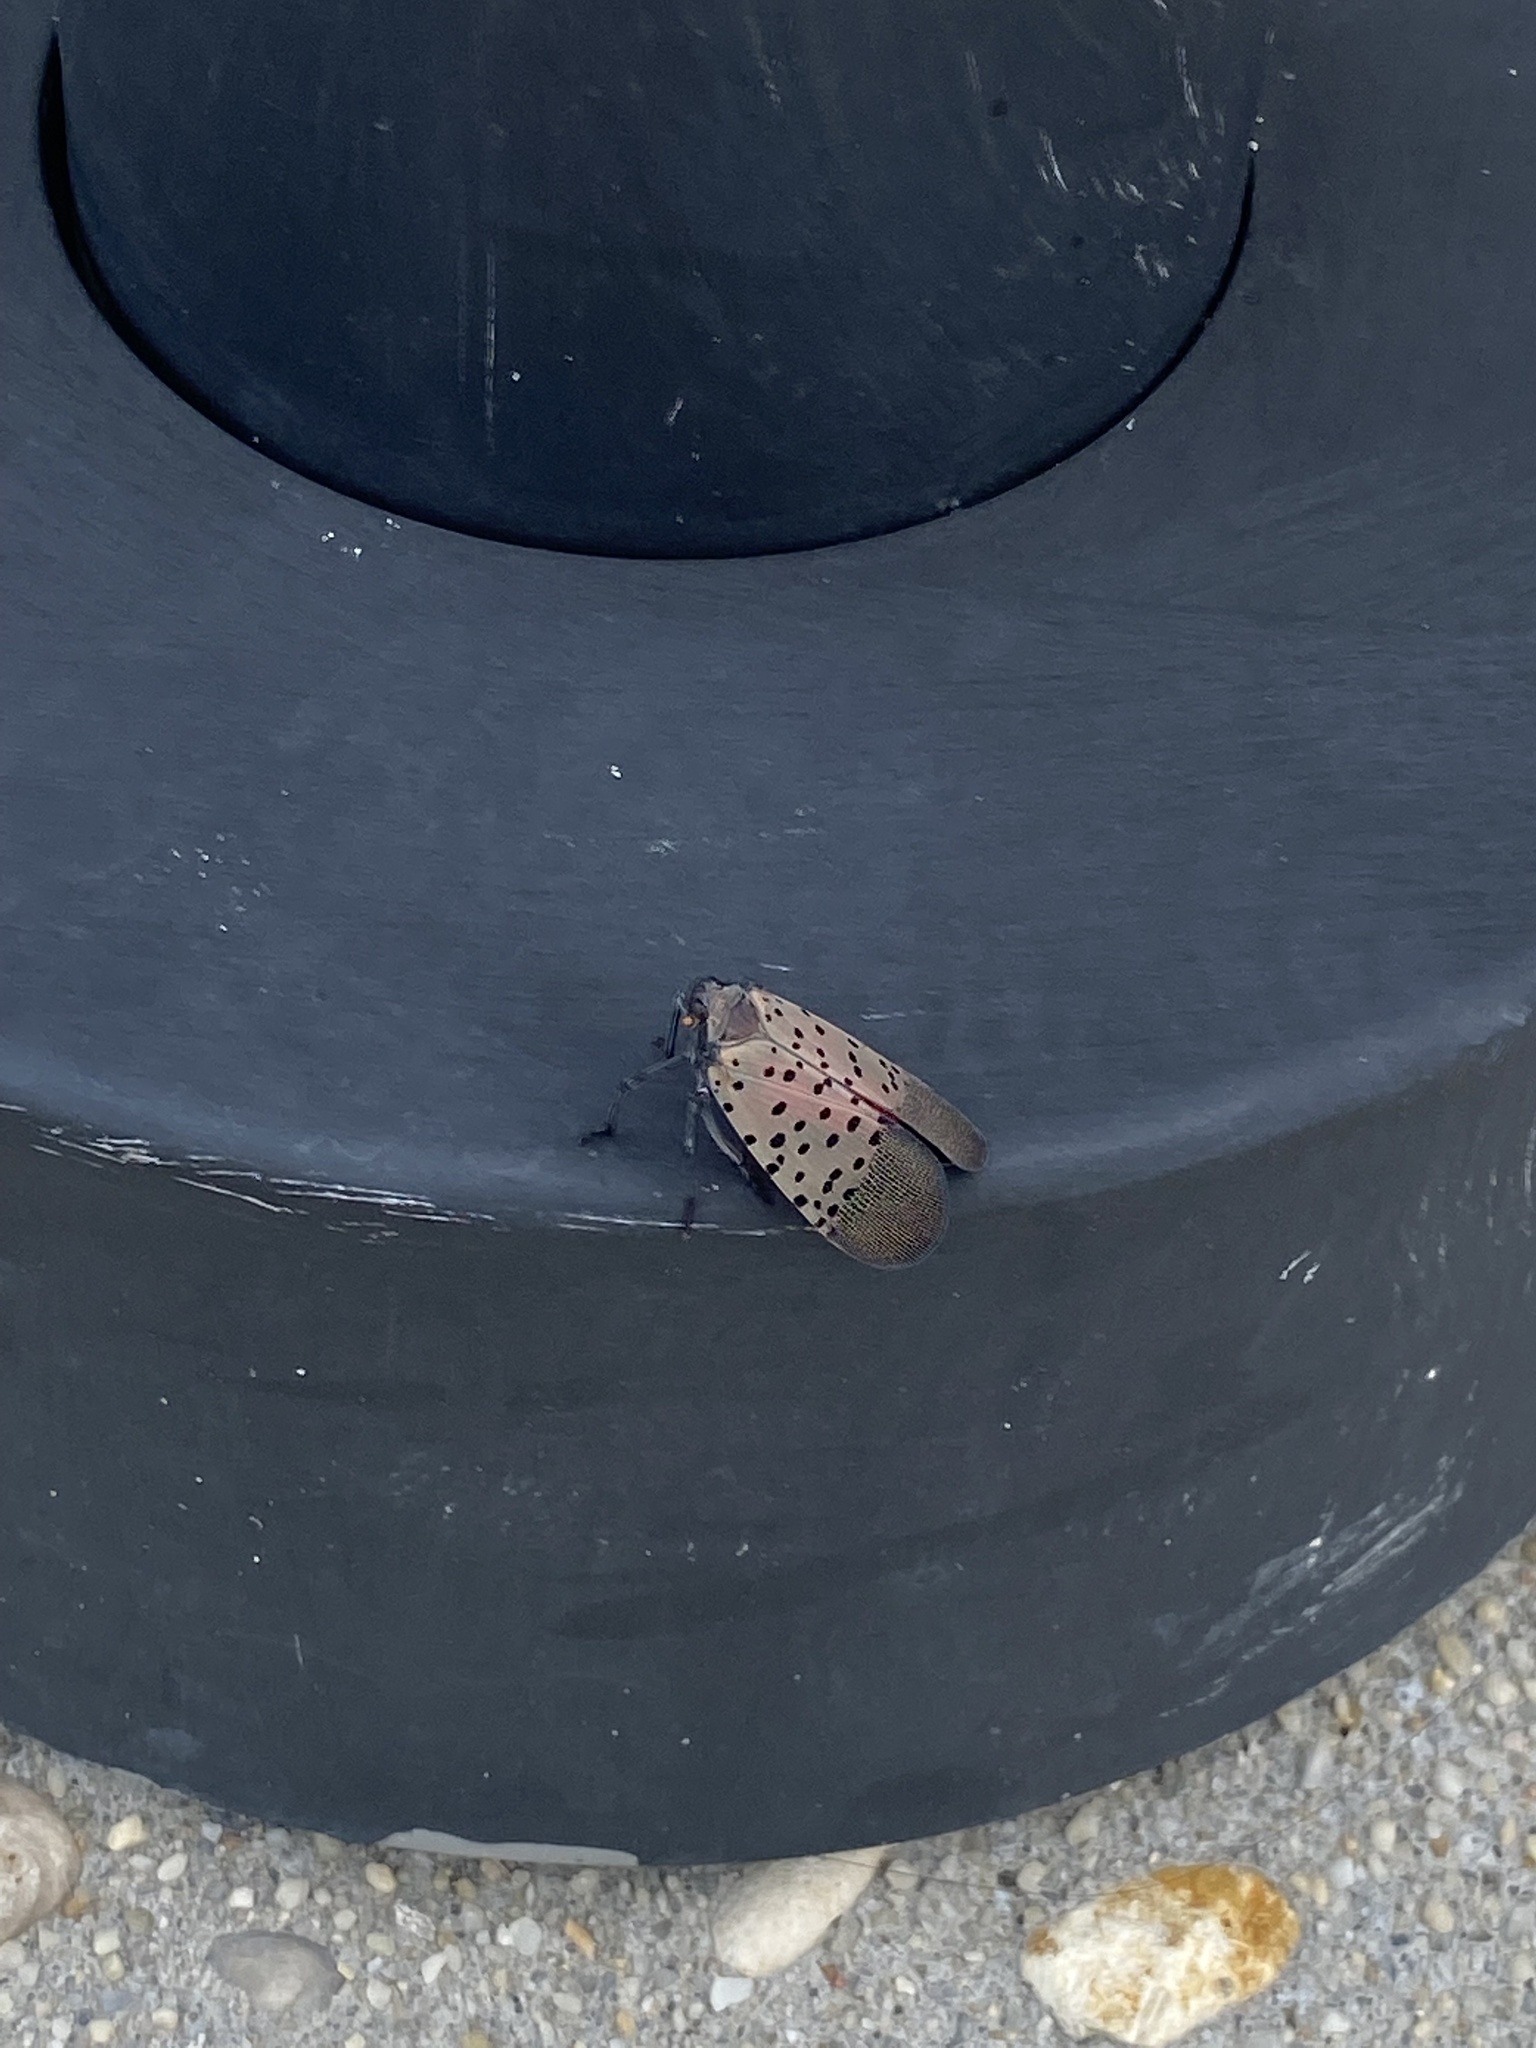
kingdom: Animalia
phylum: Arthropoda
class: Insecta
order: Hemiptera
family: Fulgoridae
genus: Lycorma
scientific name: Lycorma delicatula
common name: Spotted lanternfly
